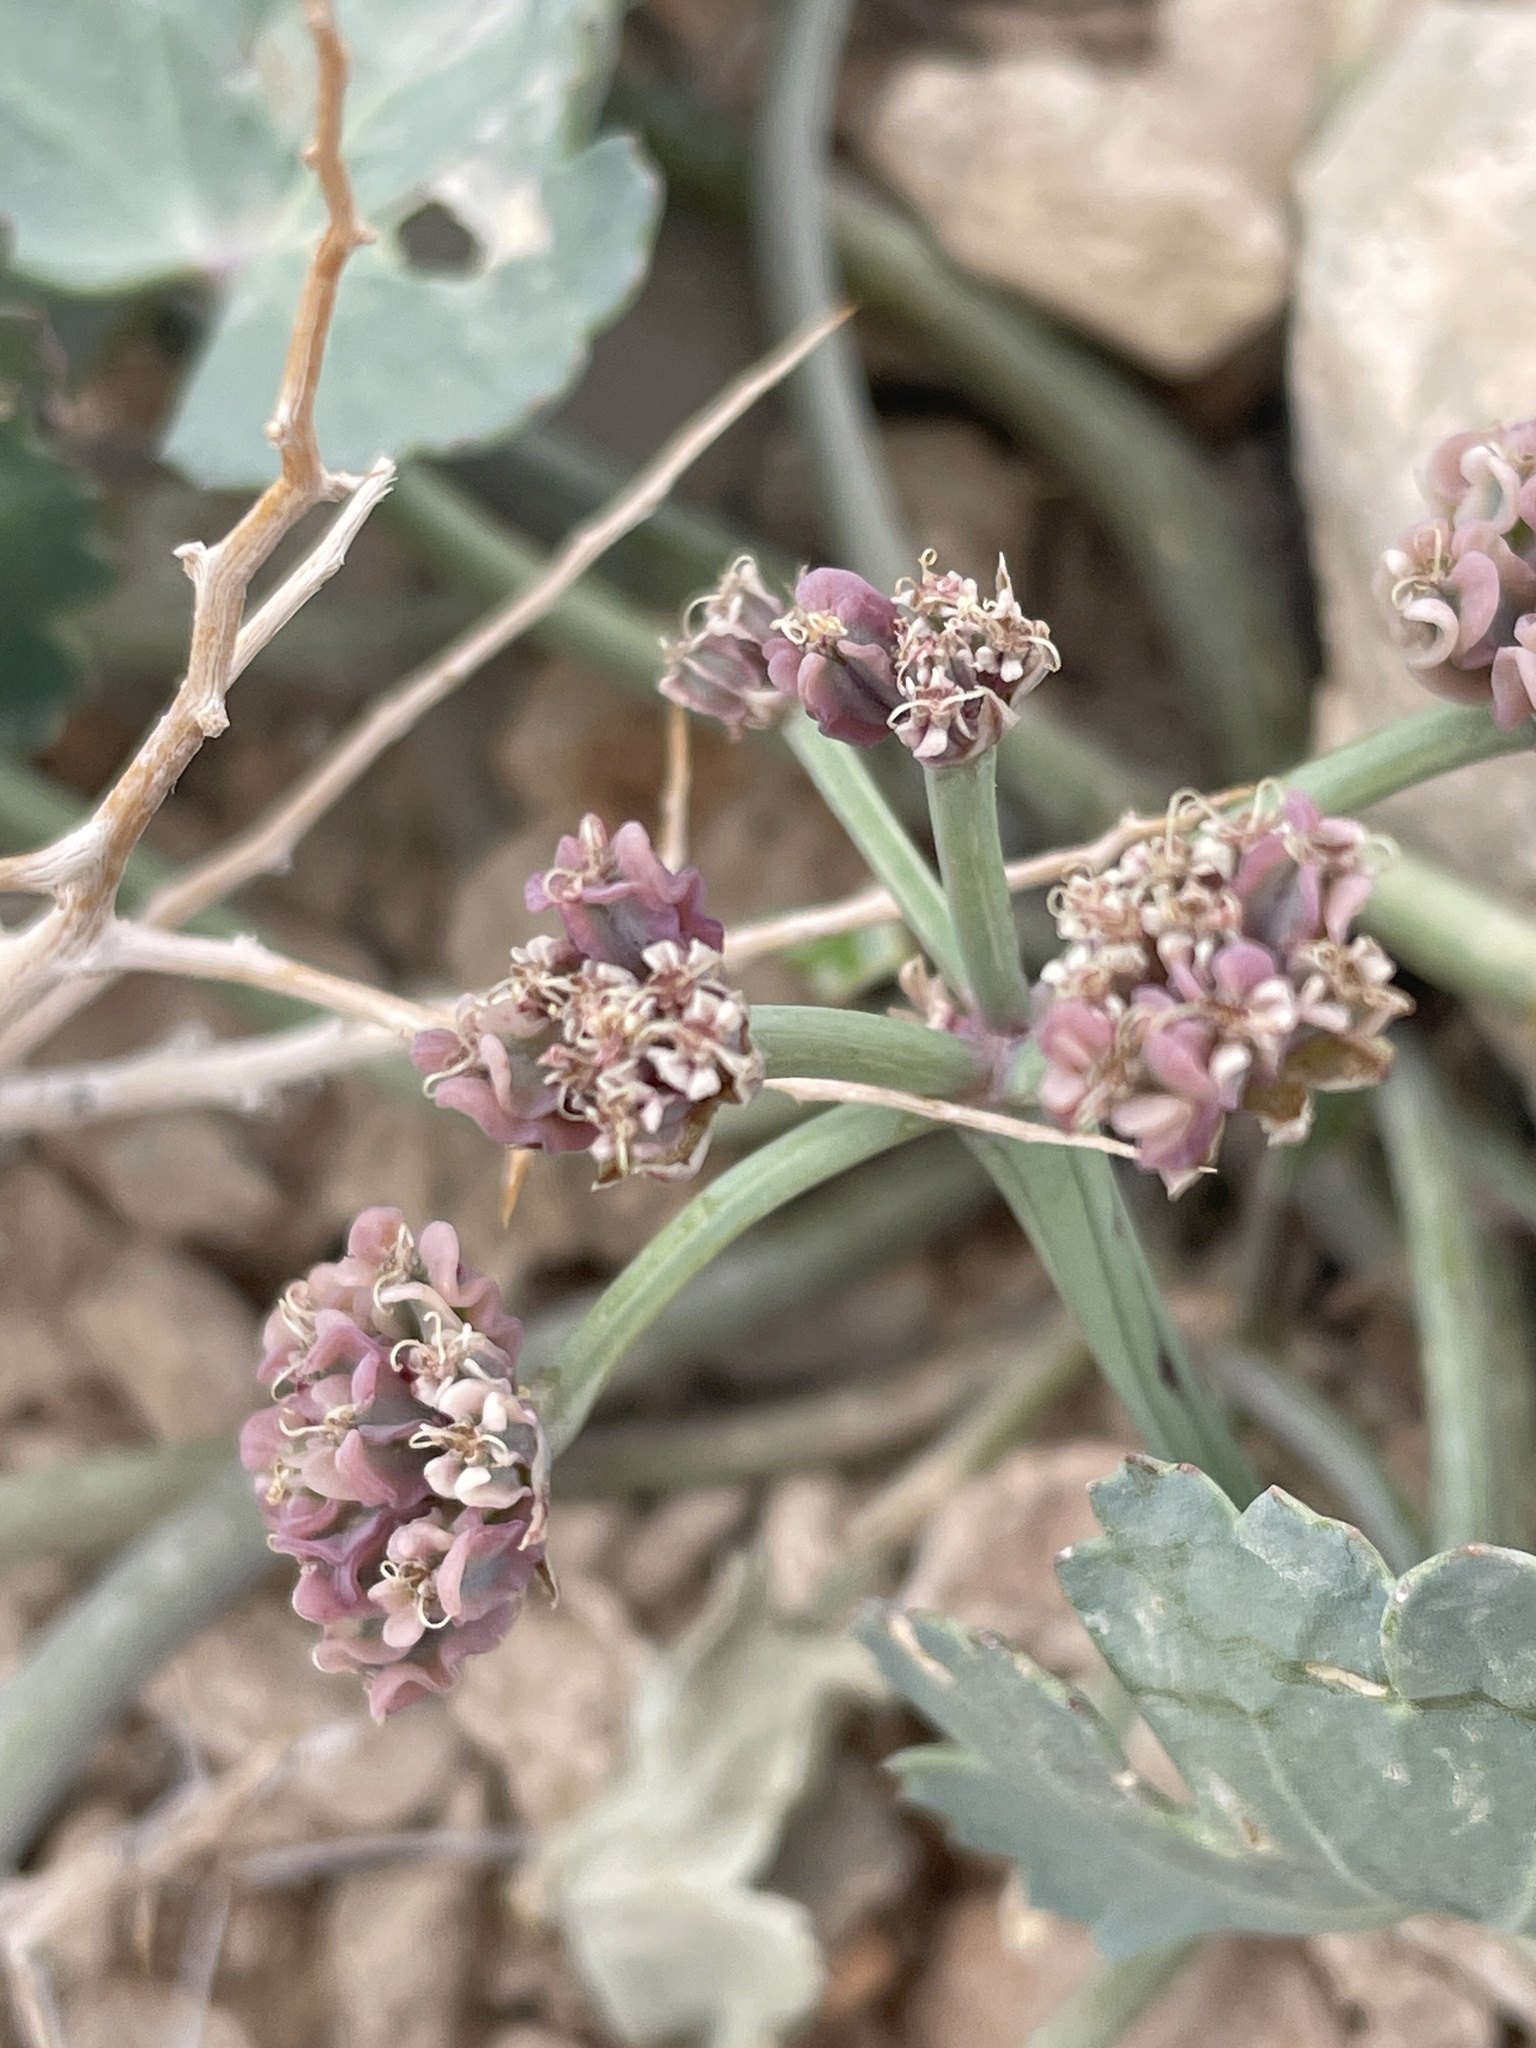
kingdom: Plantae
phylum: Tracheophyta
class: Magnoliopsida
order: Apiales
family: Apiaceae
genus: Aulospermum
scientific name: Aulospermum basalticum
